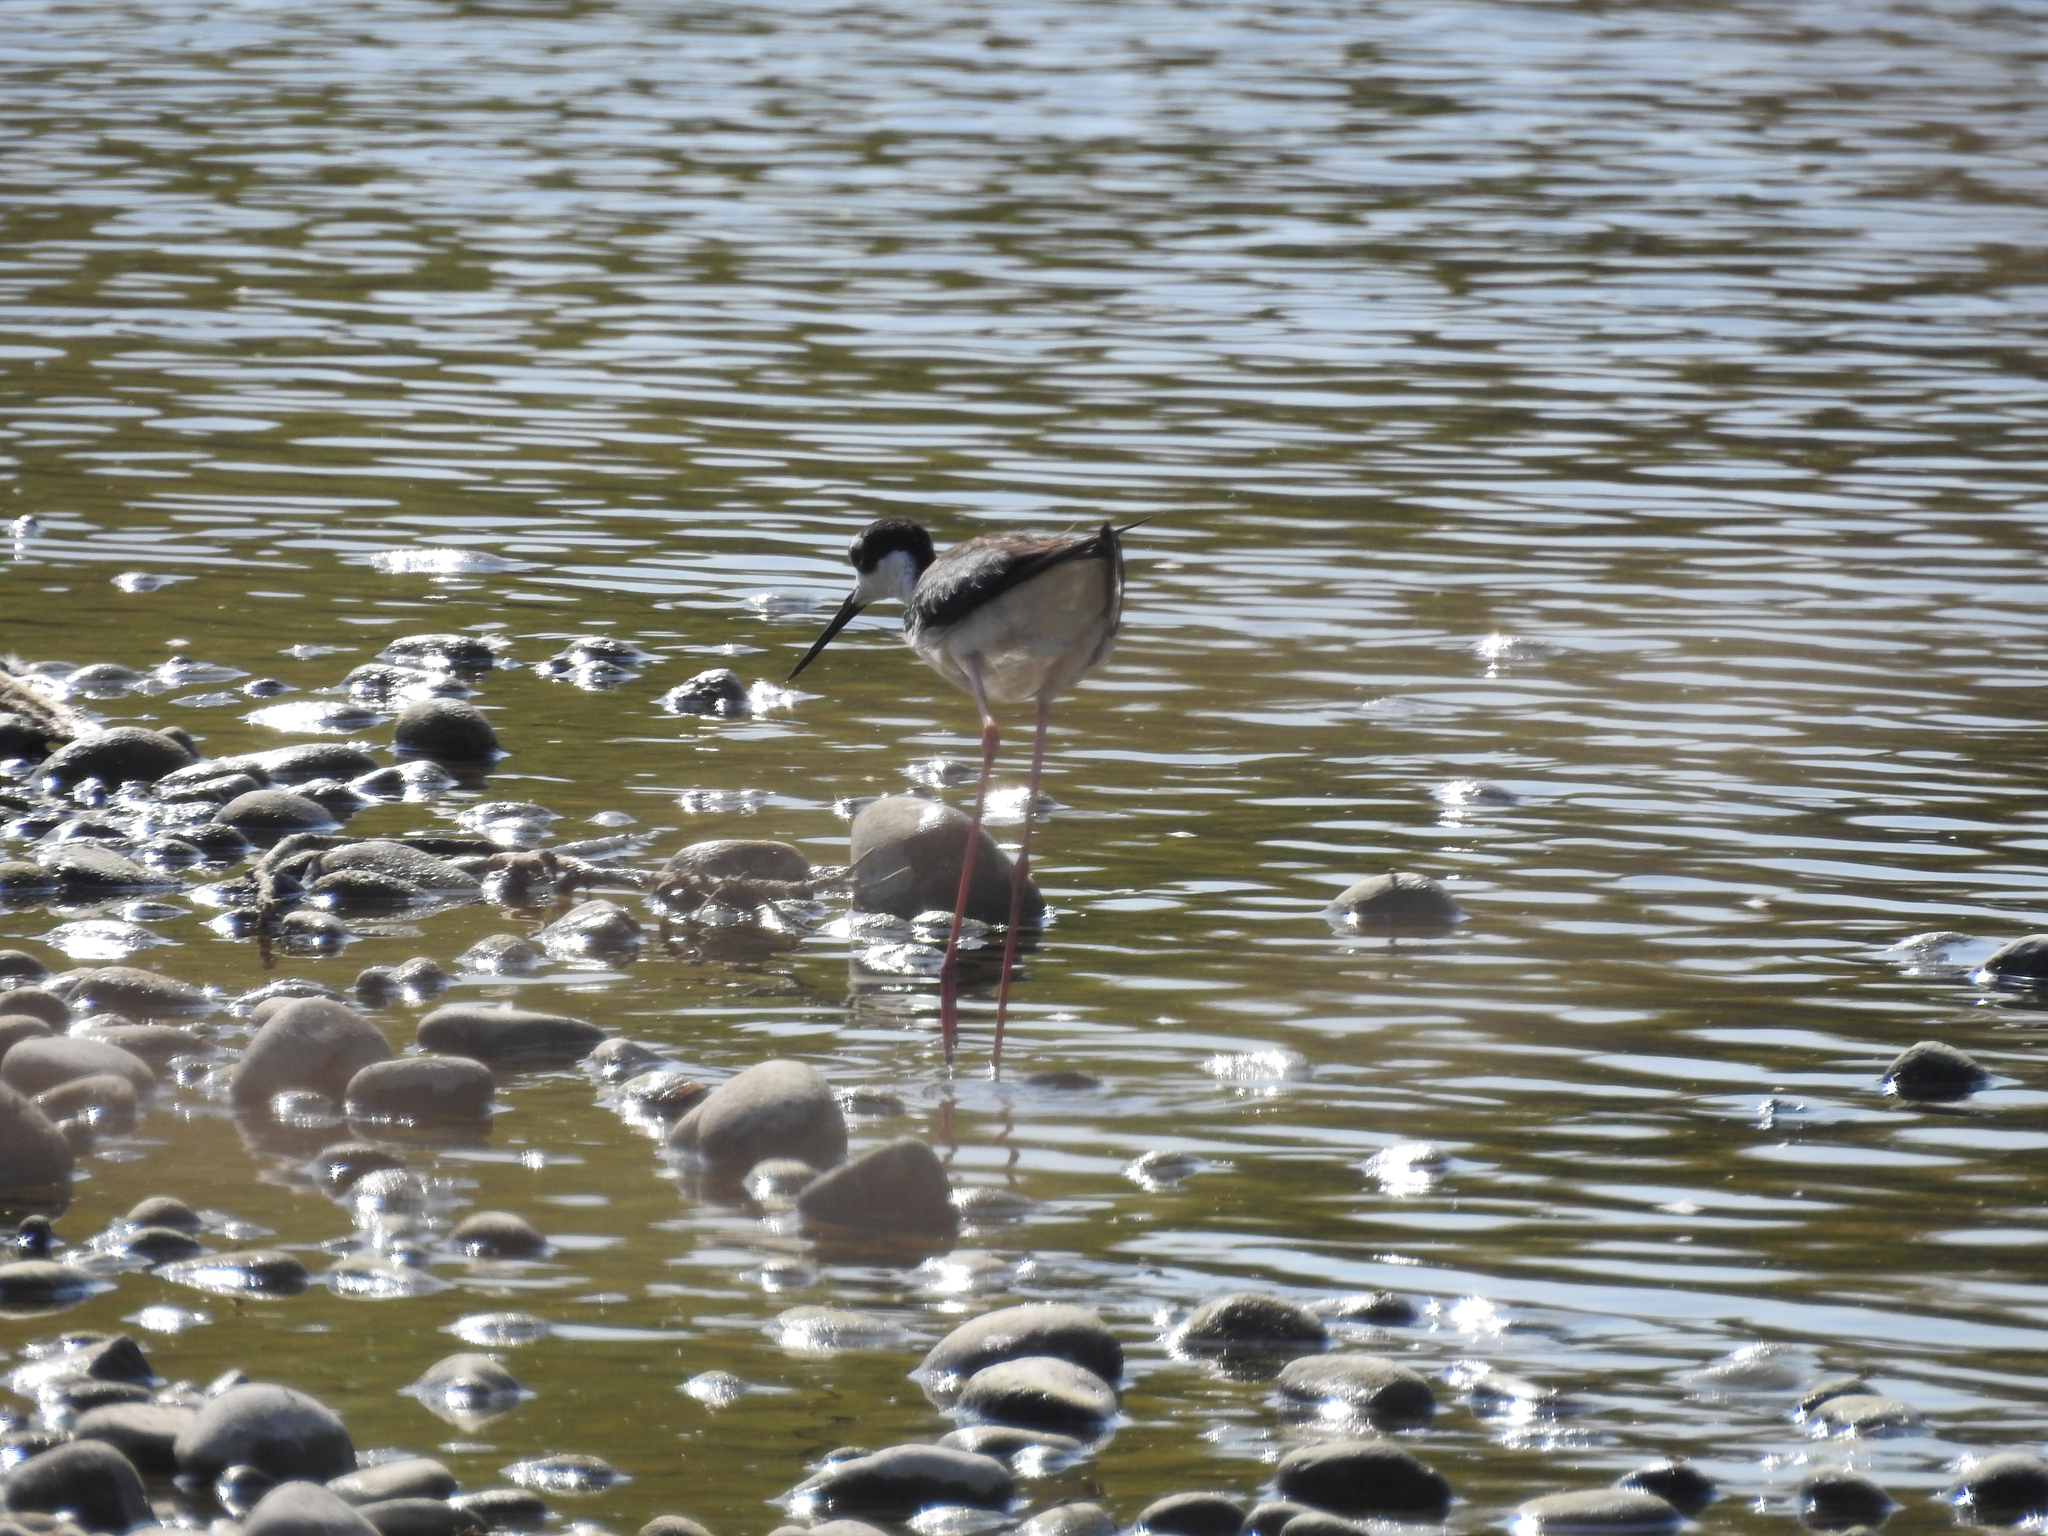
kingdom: Animalia
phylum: Chordata
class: Aves
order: Charadriiformes
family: Recurvirostridae
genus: Himantopus
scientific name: Himantopus mexicanus
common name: Black-necked stilt
